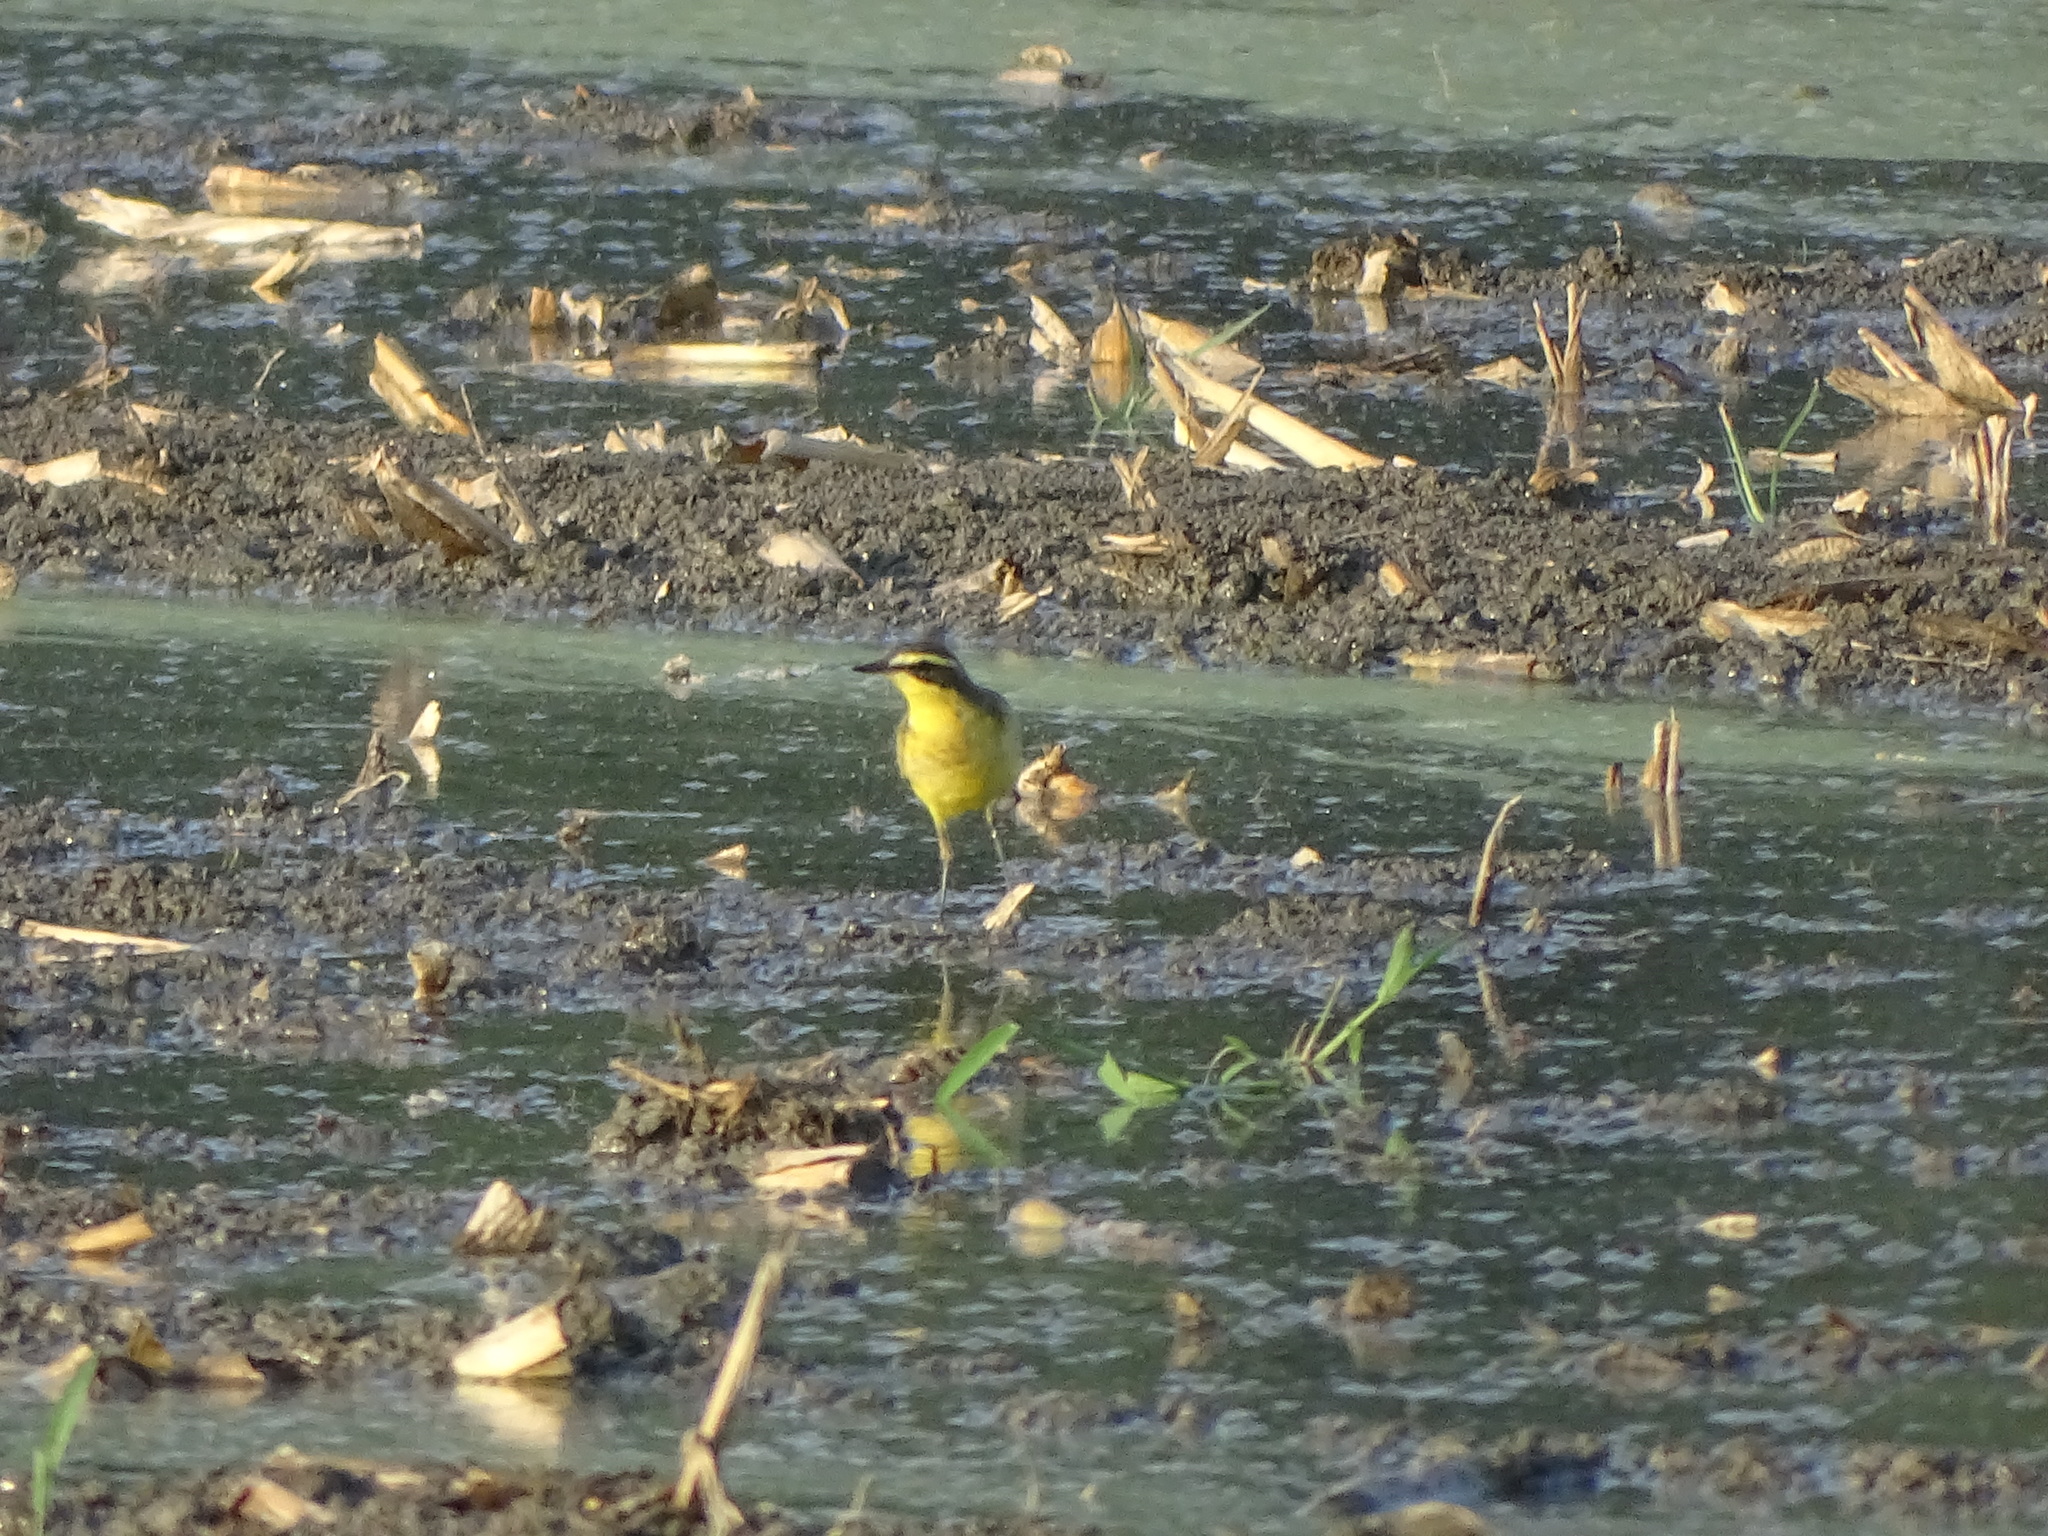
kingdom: Animalia
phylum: Chordata
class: Aves
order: Passeriformes
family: Motacillidae
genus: Motacilla
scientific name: Motacilla tschutschensis
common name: Eastern yellow wagtail
